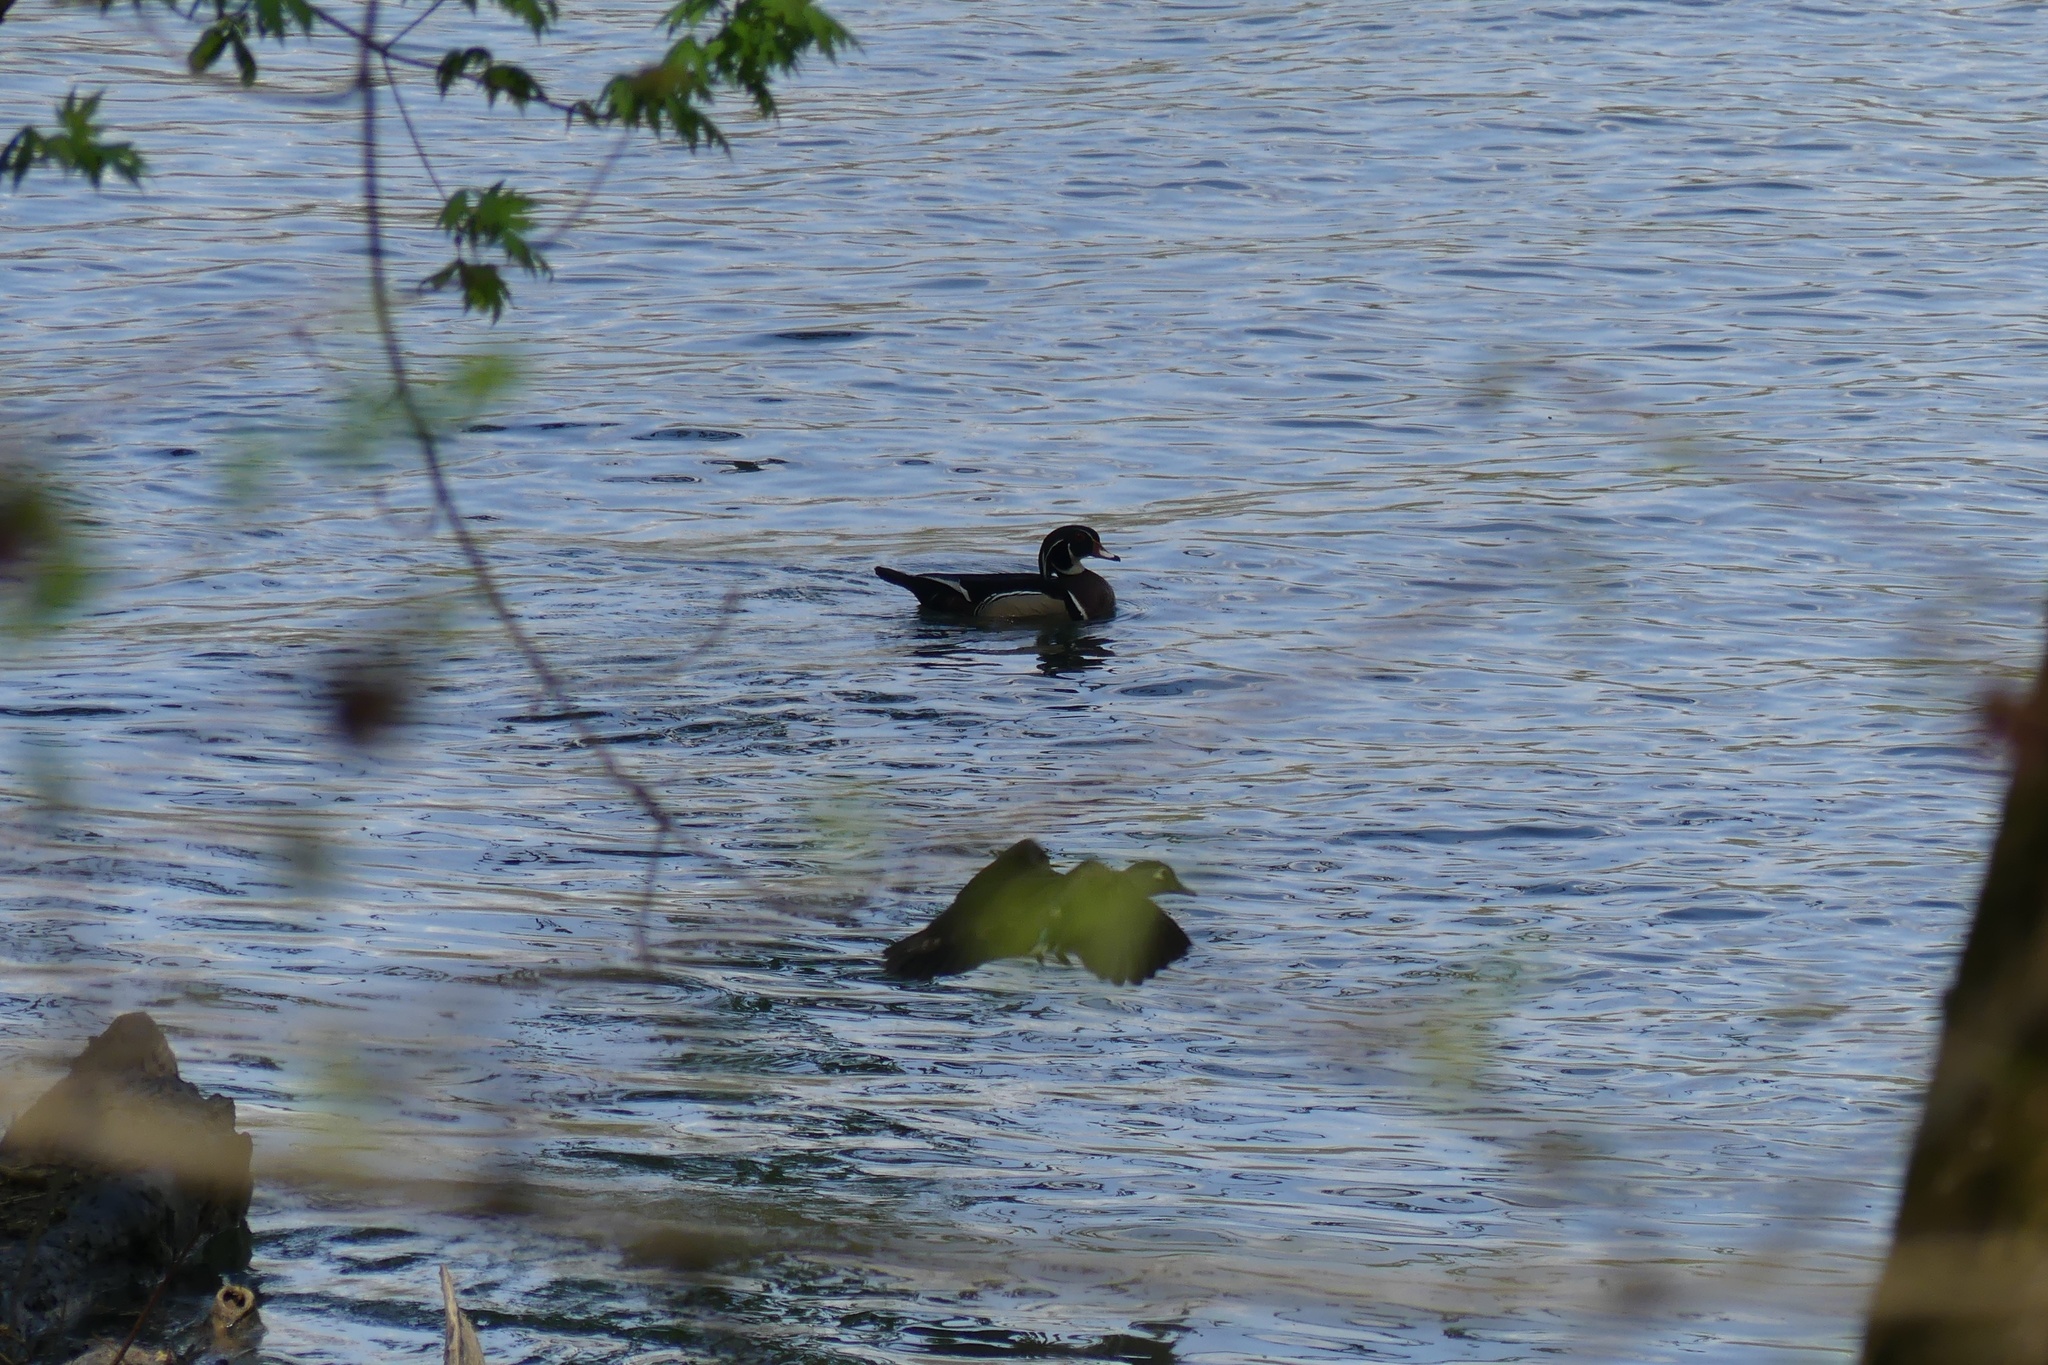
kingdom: Animalia
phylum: Chordata
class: Aves
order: Anseriformes
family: Anatidae
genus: Aix
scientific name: Aix sponsa
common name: Wood duck
